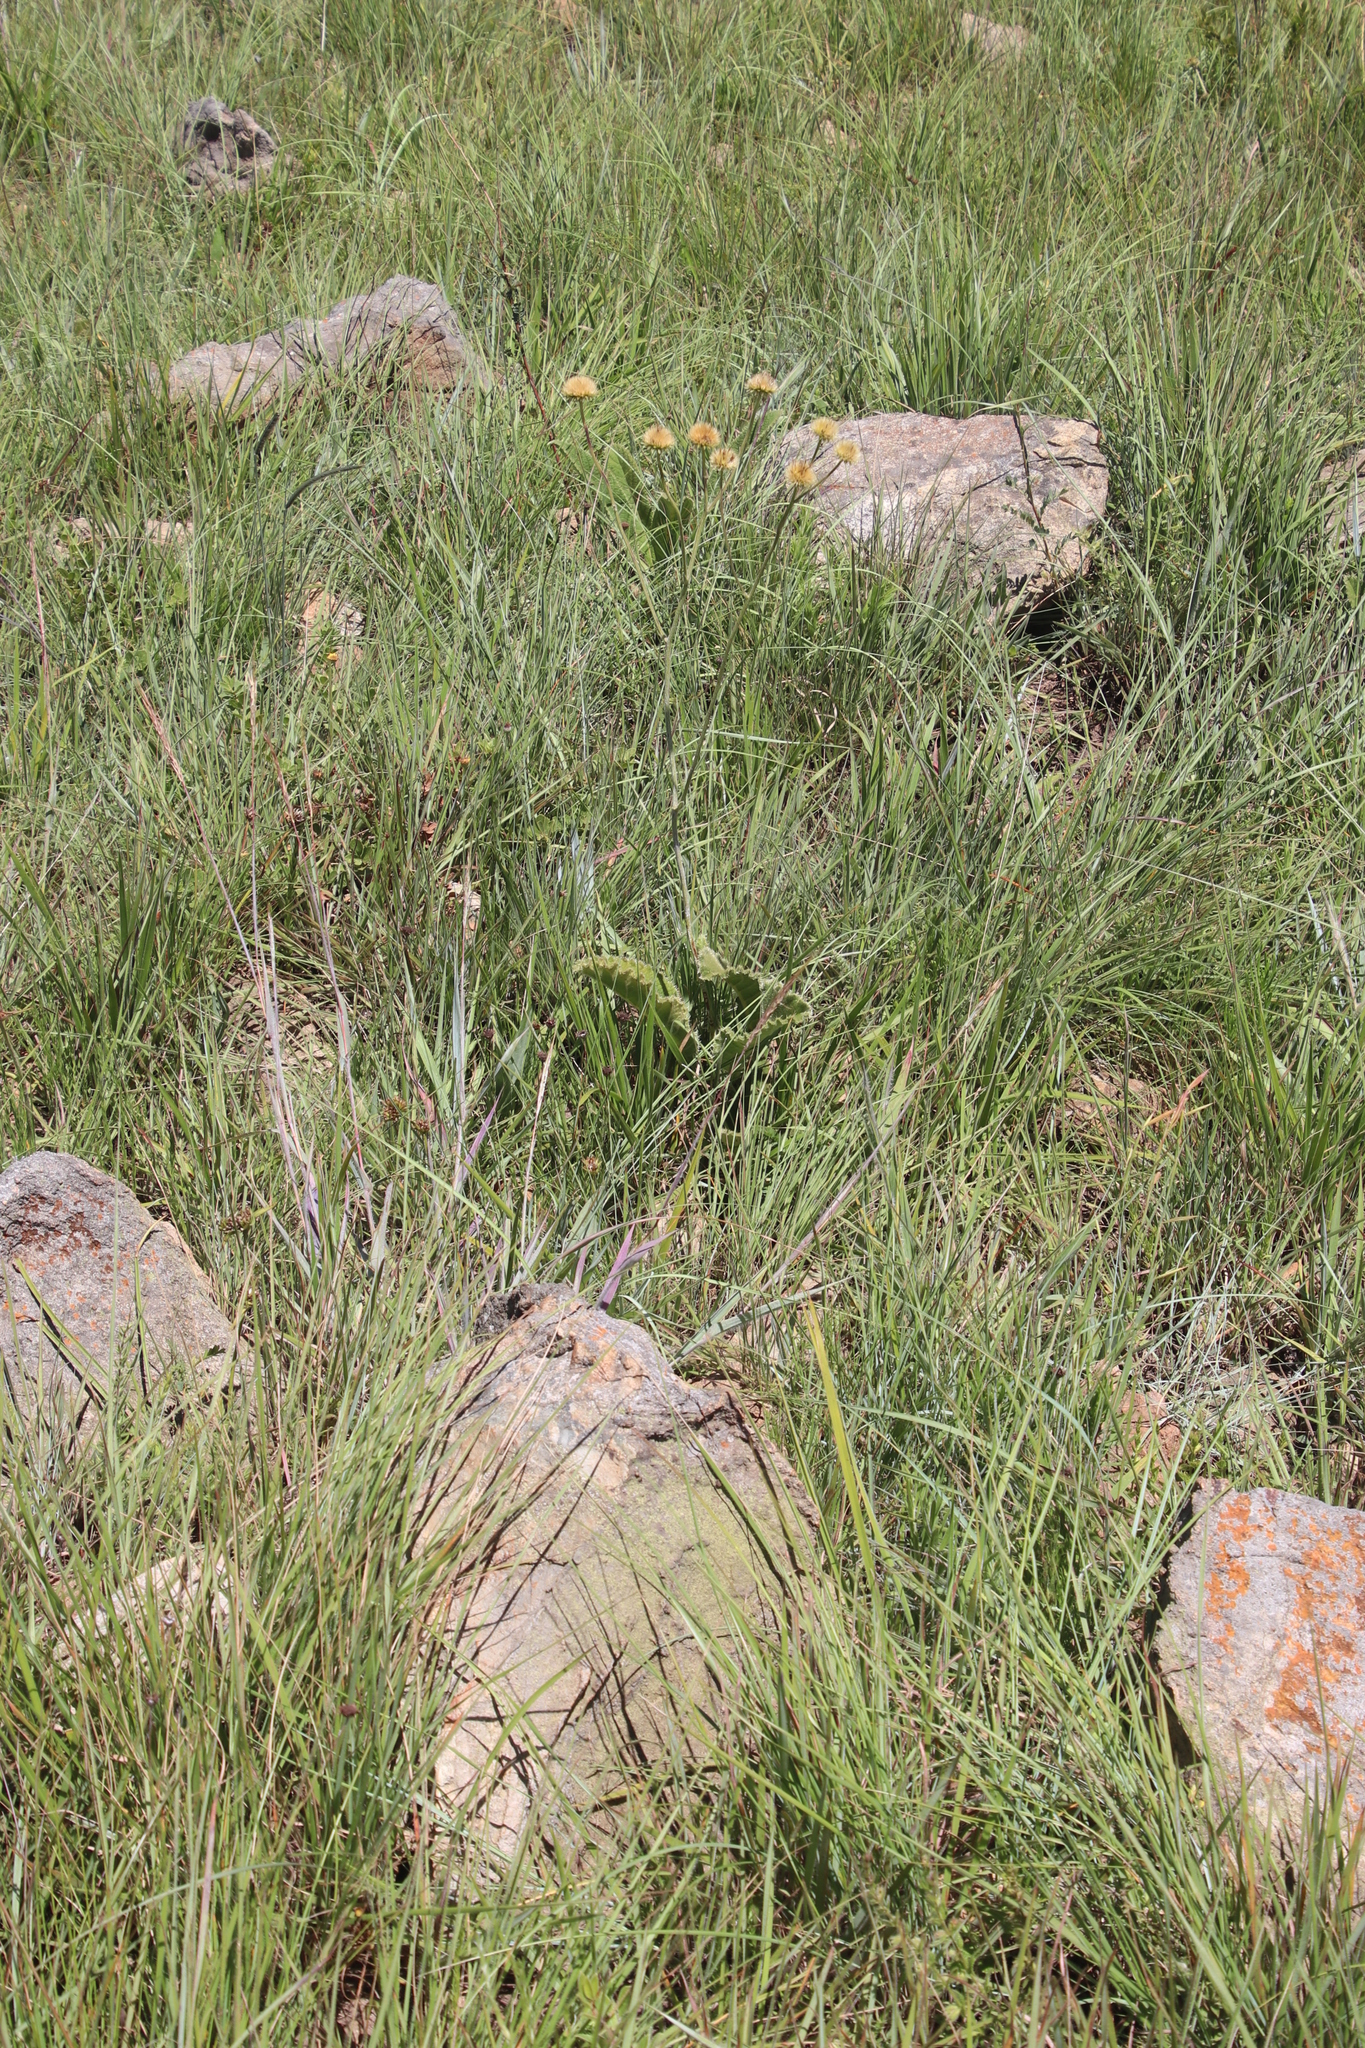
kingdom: Plantae
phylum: Tracheophyta
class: Magnoliopsida
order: Asterales
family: Asteraceae
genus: Berkheya
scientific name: Berkheya setifera
